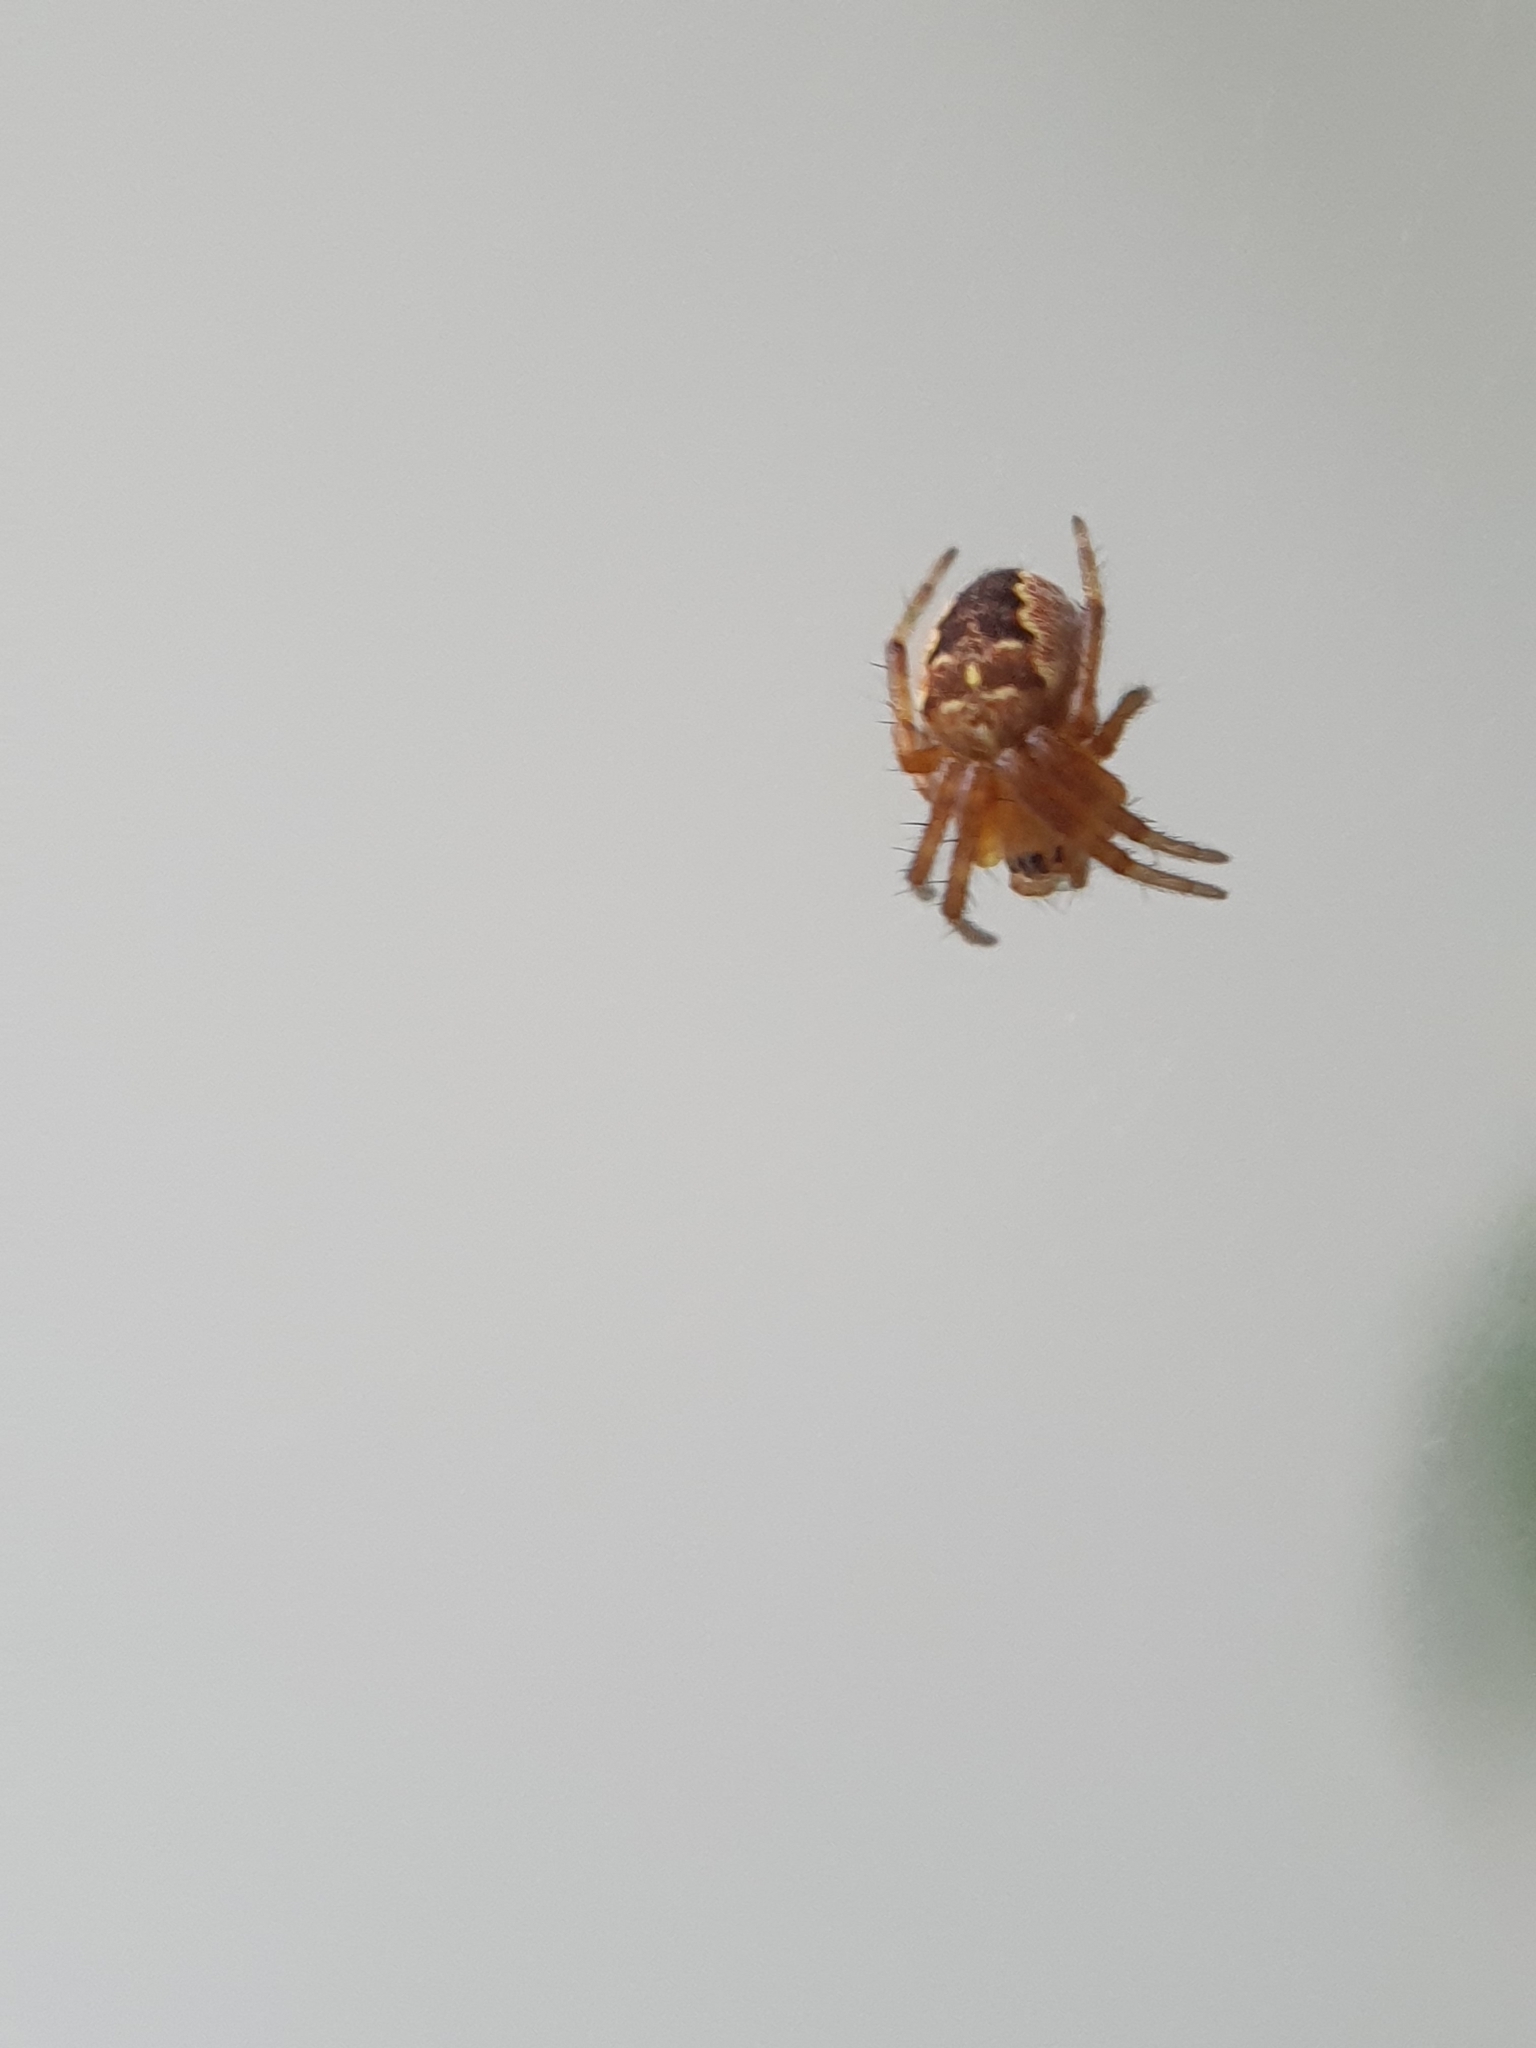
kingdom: Animalia
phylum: Arthropoda
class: Arachnida
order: Araneae
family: Araneidae
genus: Araneus
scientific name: Araneus diadematus
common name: Cross orbweaver
